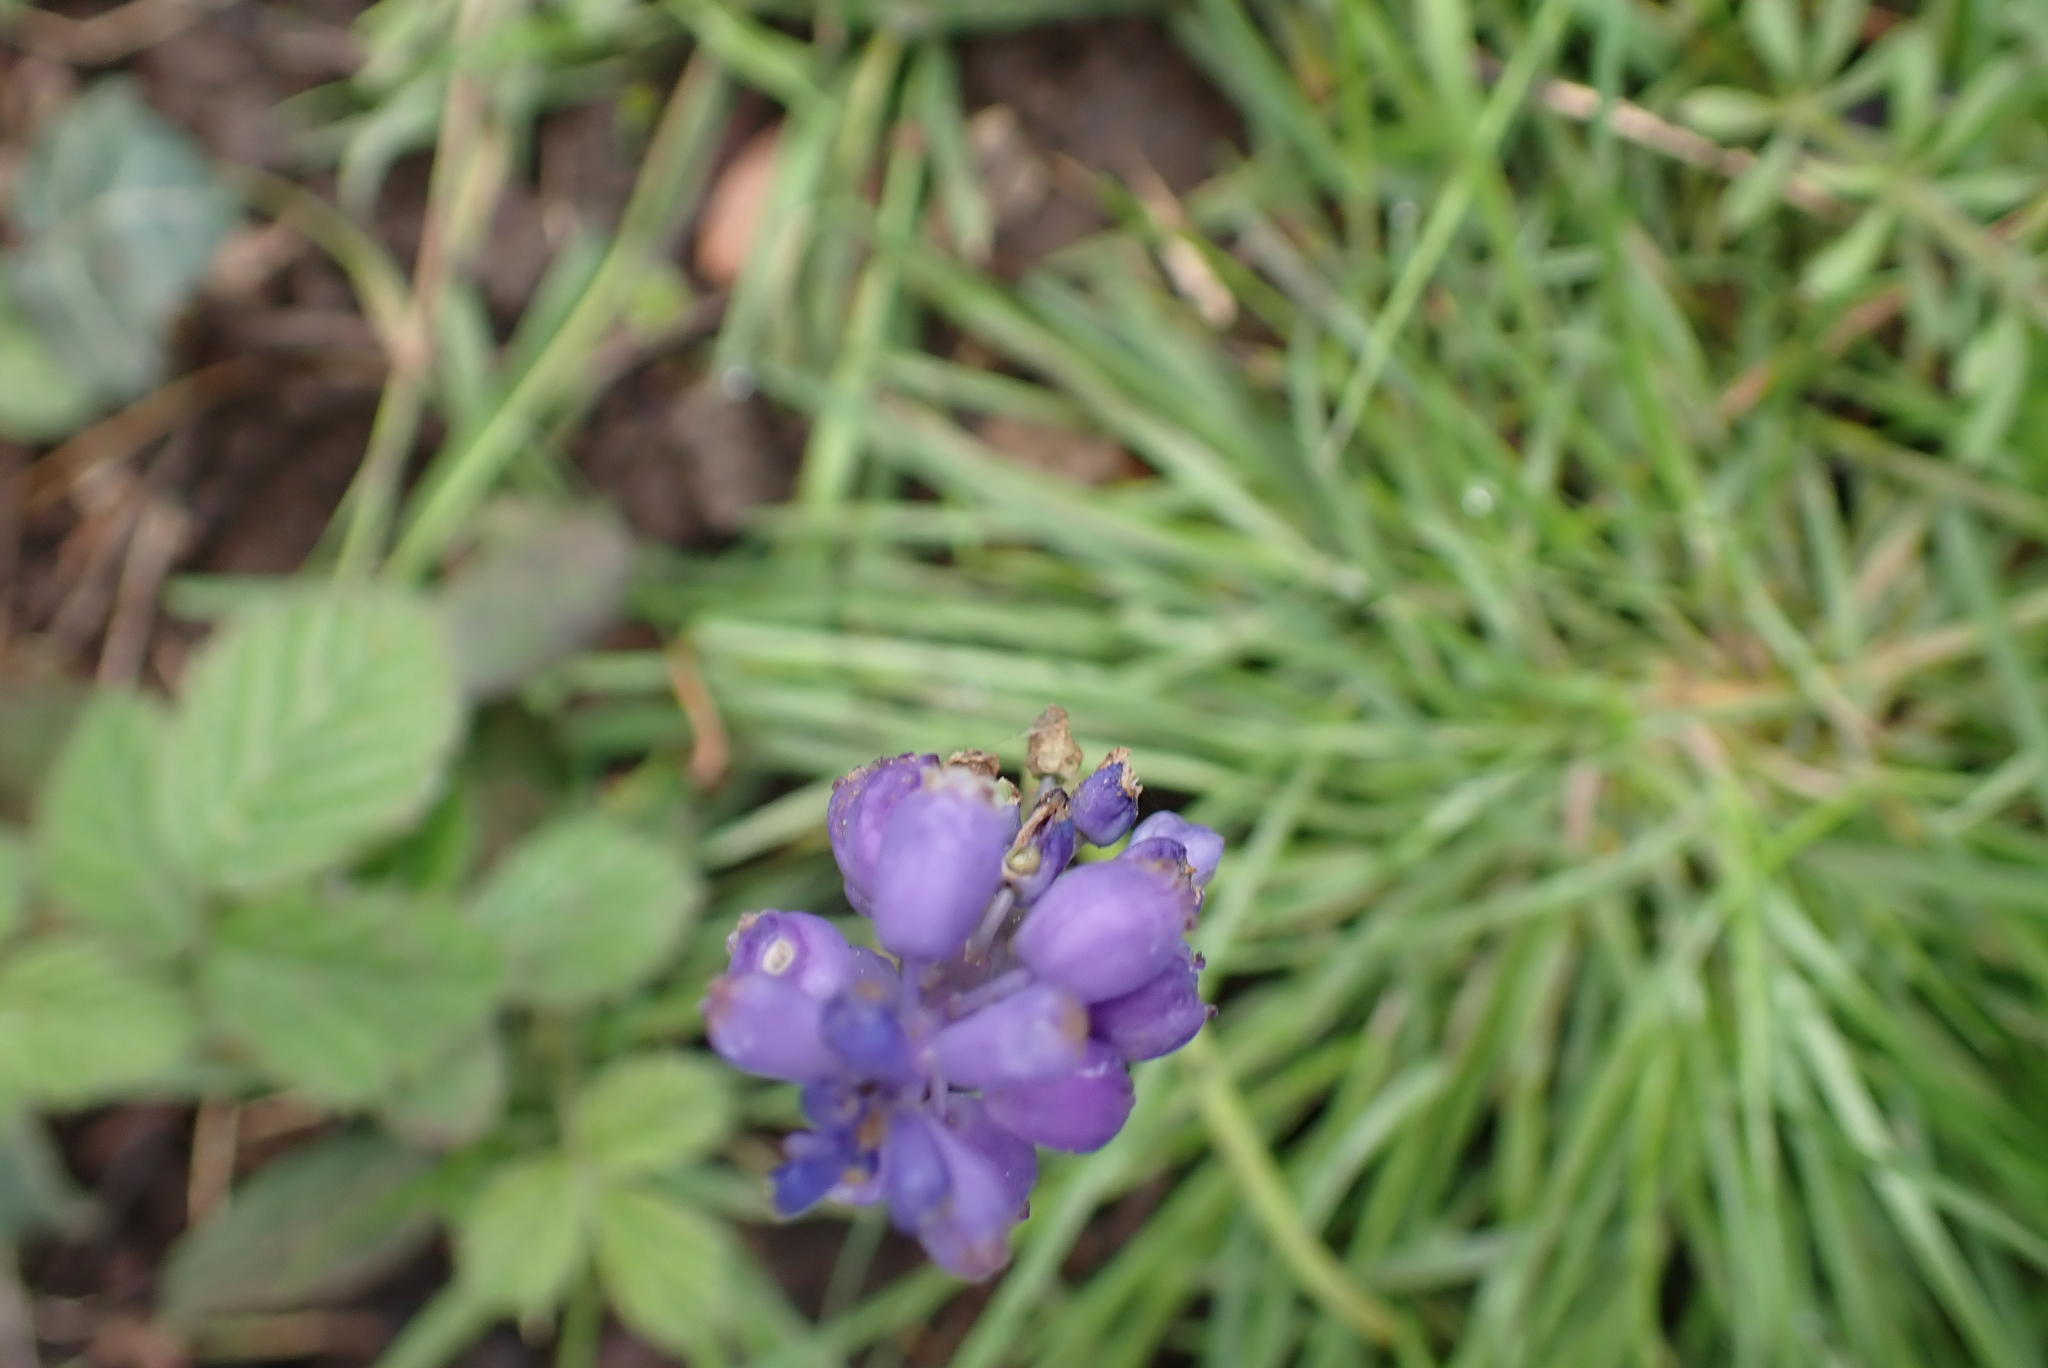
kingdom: Plantae
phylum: Tracheophyta
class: Liliopsida
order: Asparagales
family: Asparagaceae
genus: Muscari
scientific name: Muscari armeniacum
